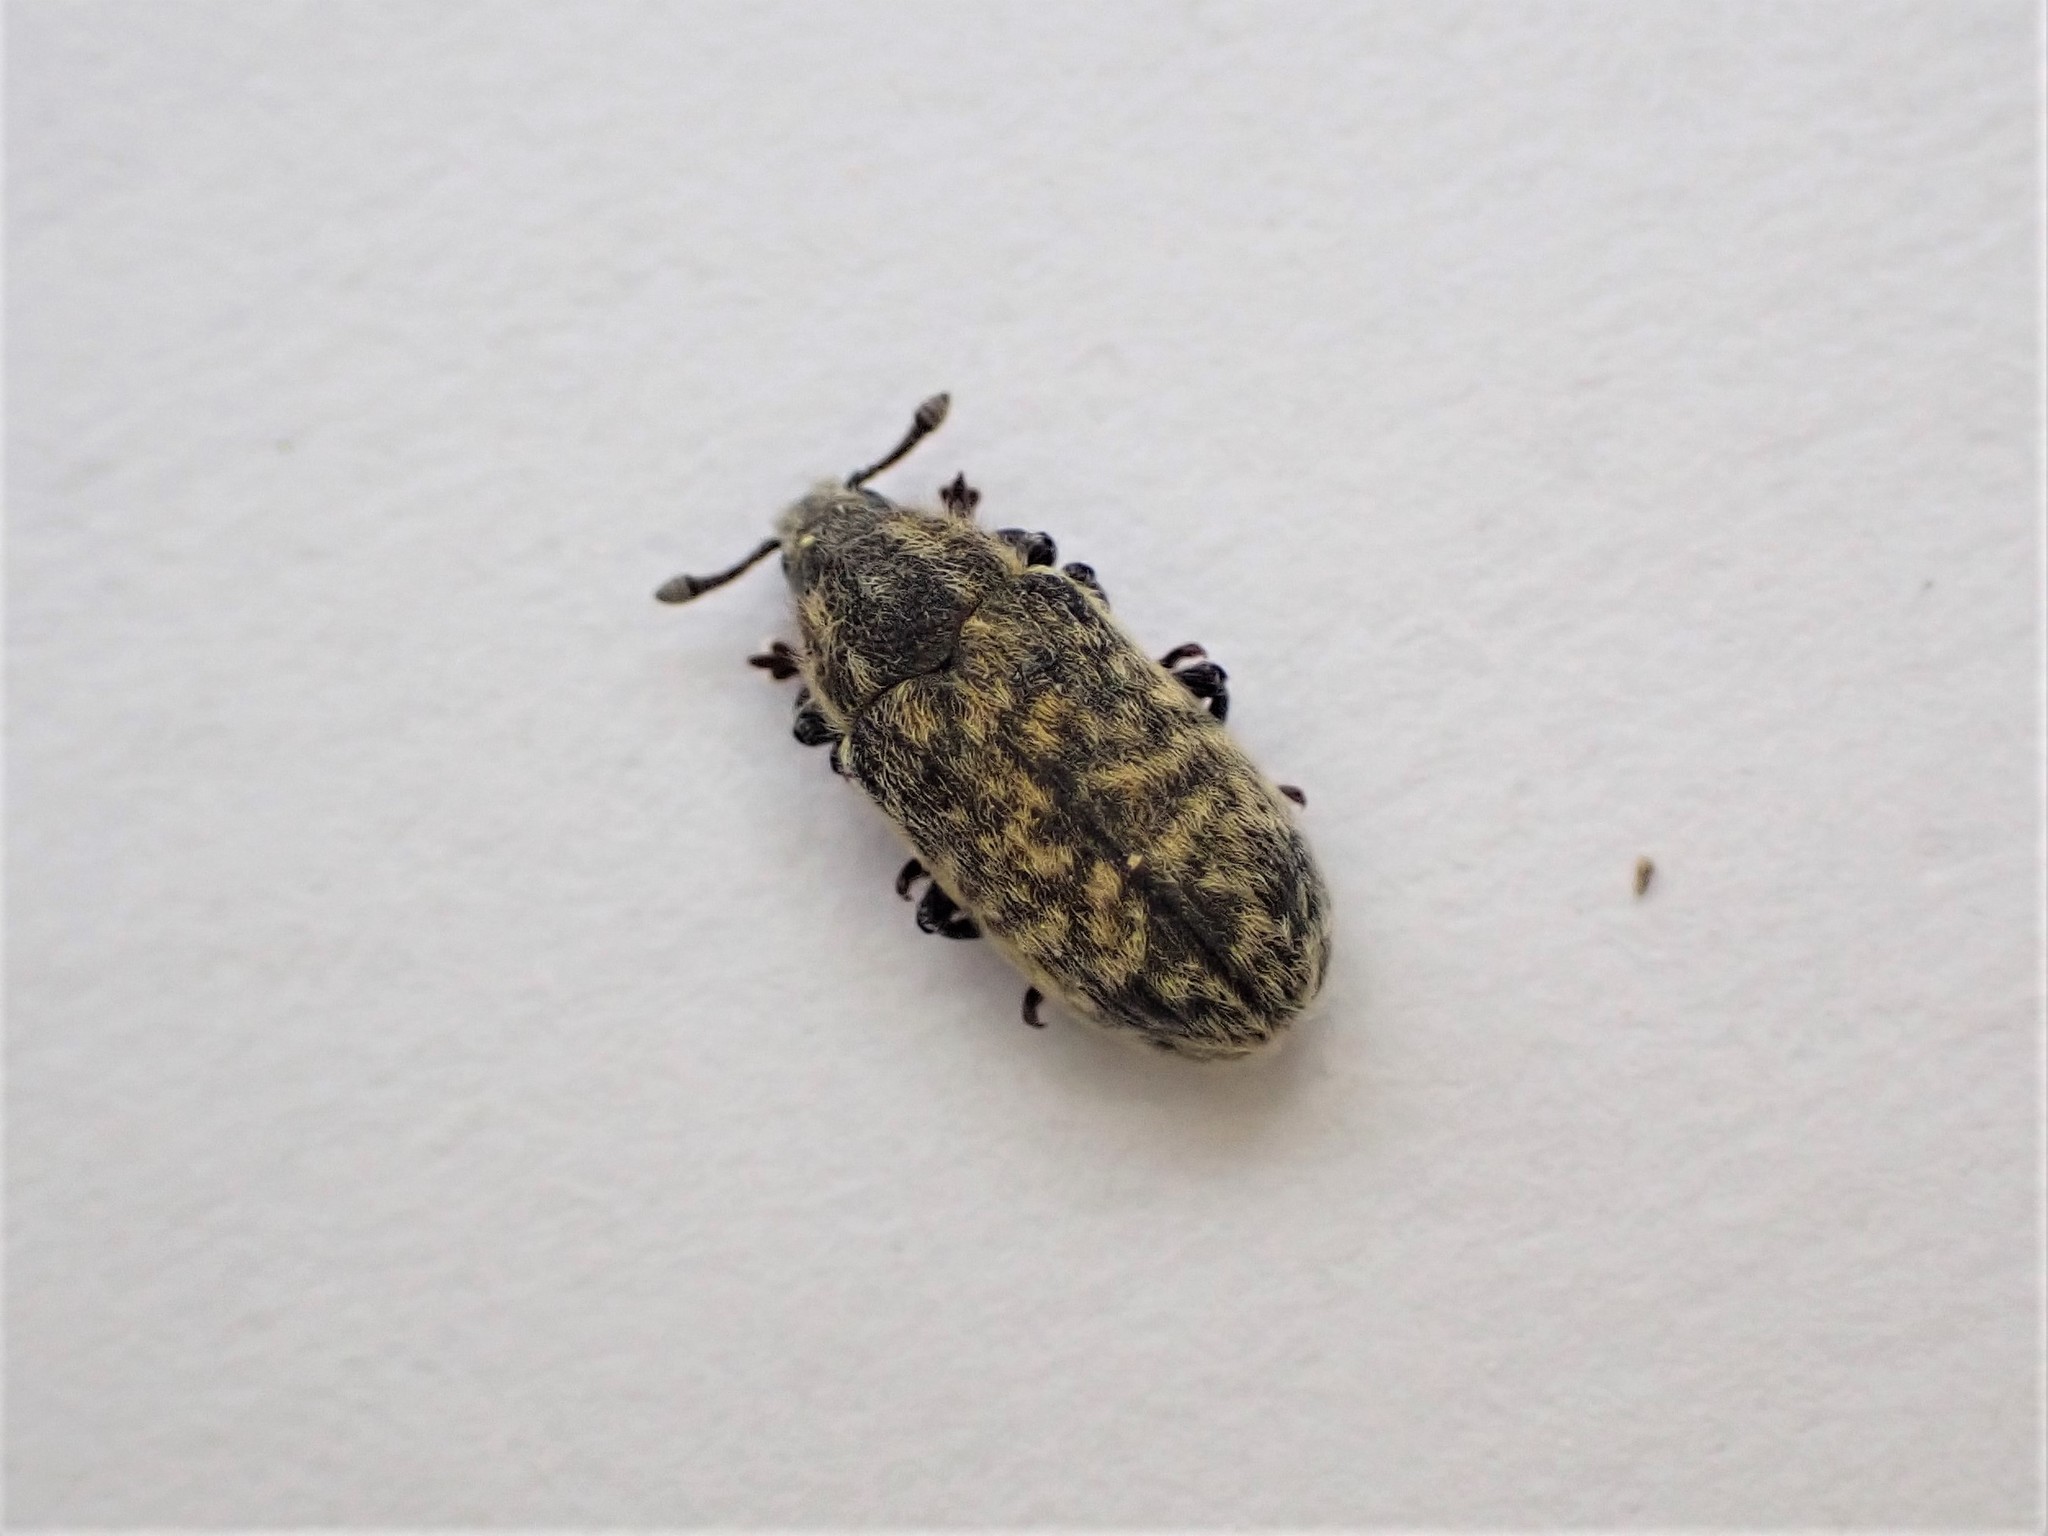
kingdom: Animalia
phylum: Arthropoda
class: Insecta
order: Coleoptera
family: Curculionidae
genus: Rhinocyllus
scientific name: Rhinocyllus conicus
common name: Weevil
